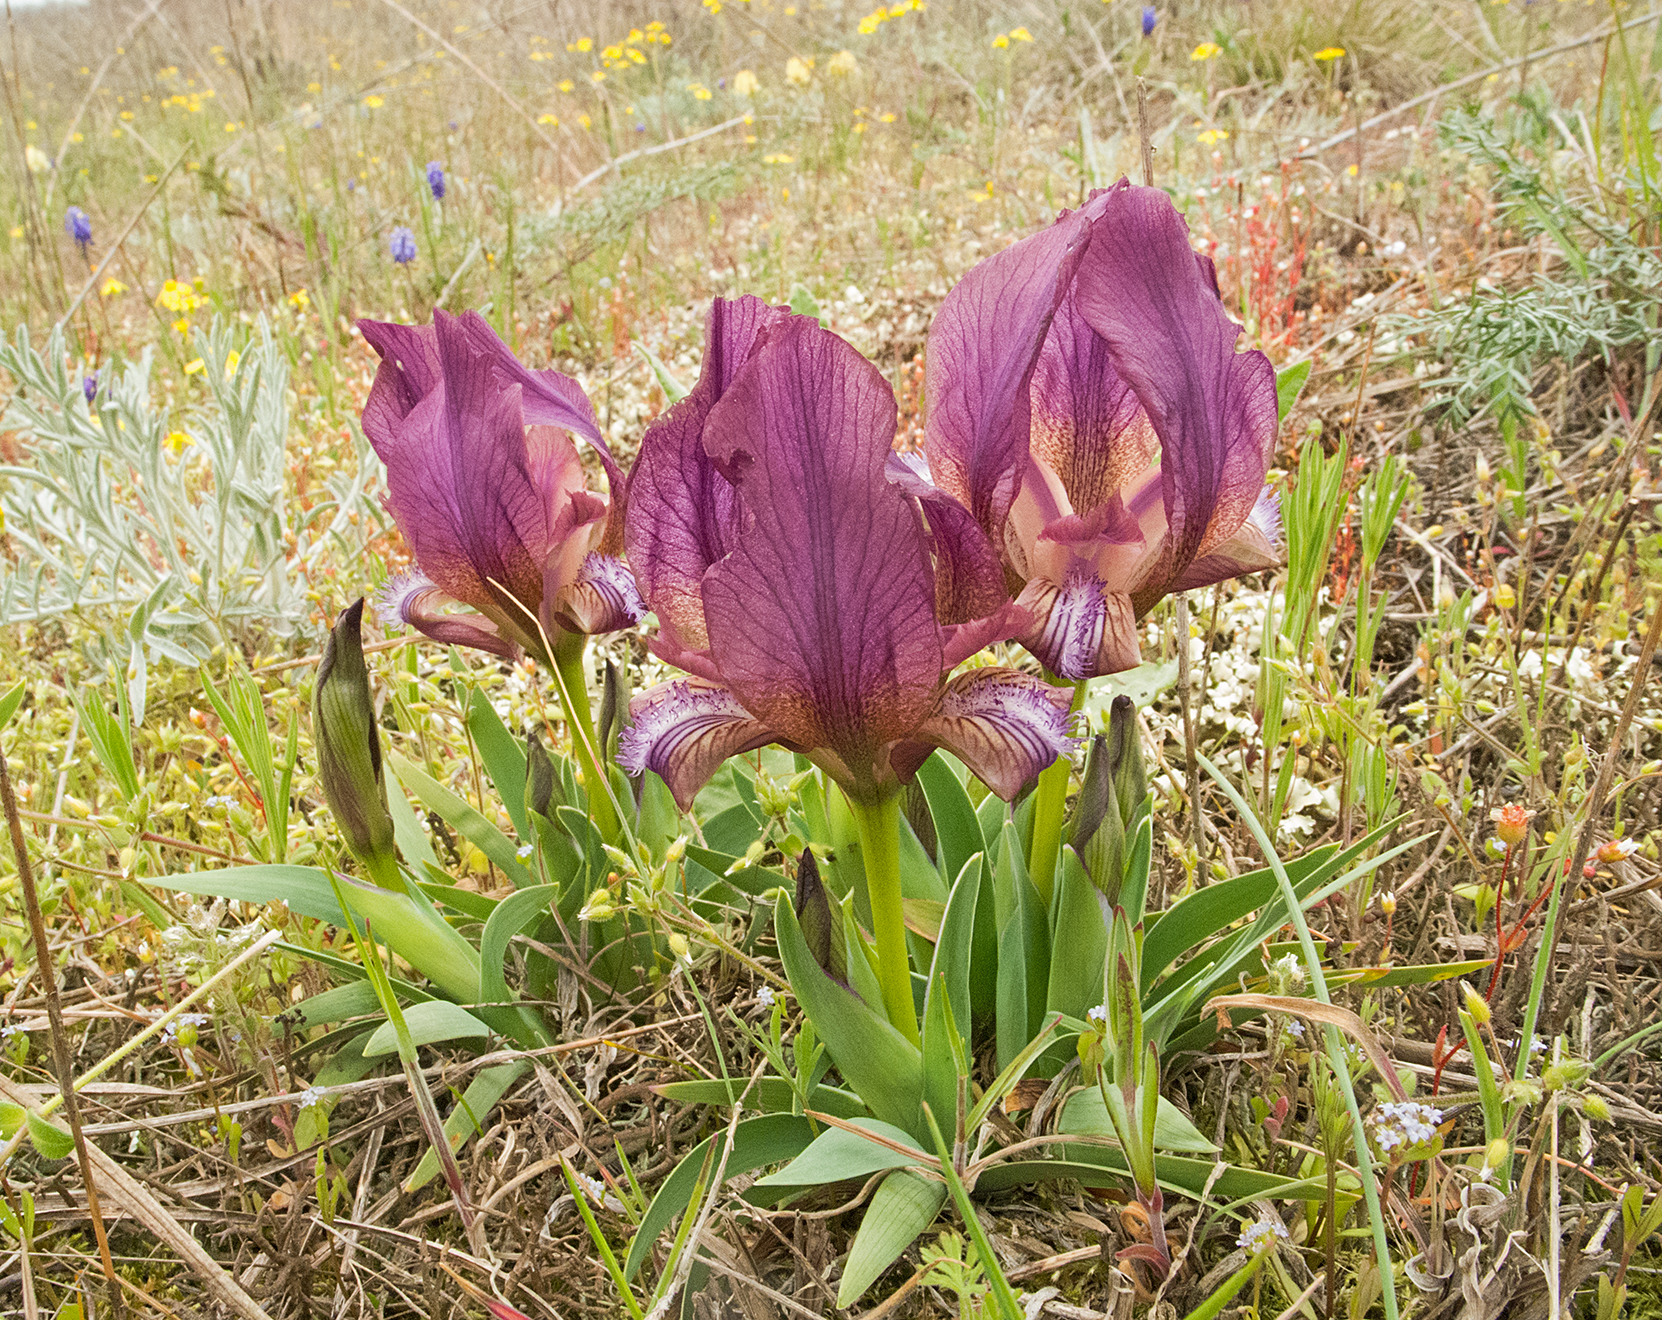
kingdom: Plantae
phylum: Tracheophyta
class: Liliopsida
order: Asparagales
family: Iridaceae
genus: Iris
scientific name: Iris suaveolens
